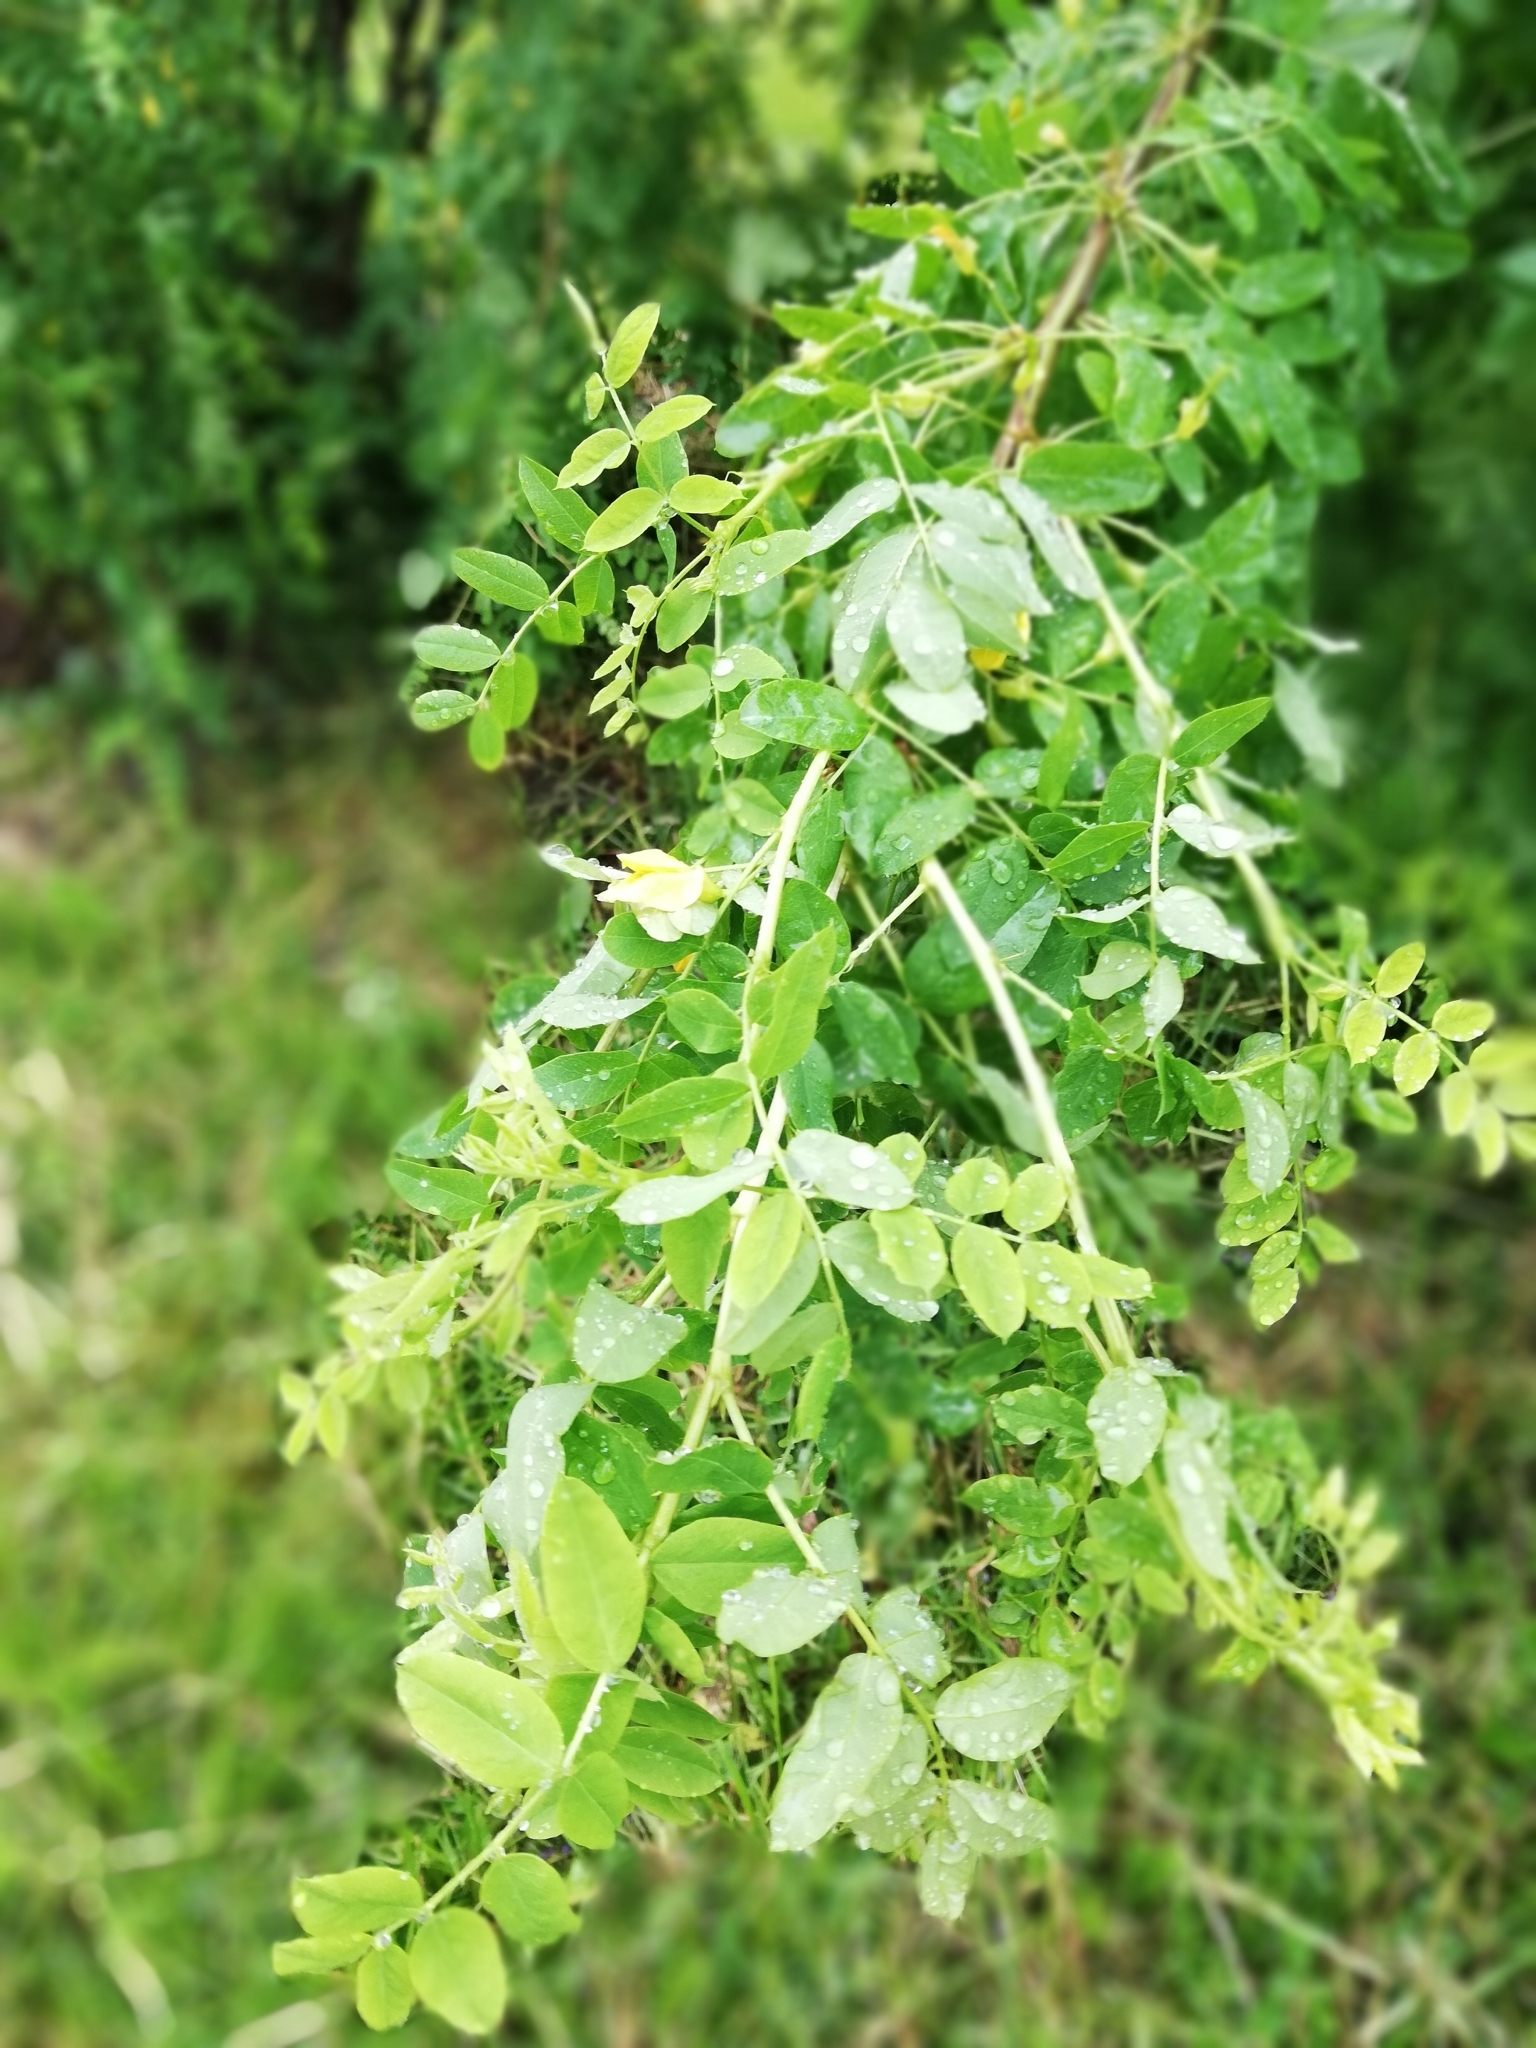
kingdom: Plantae
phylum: Tracheophyta
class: Magnoliopsida
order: Fabales
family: Fabaceae
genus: Caragana
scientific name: Caragana arborescens
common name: Siberian peashrub
